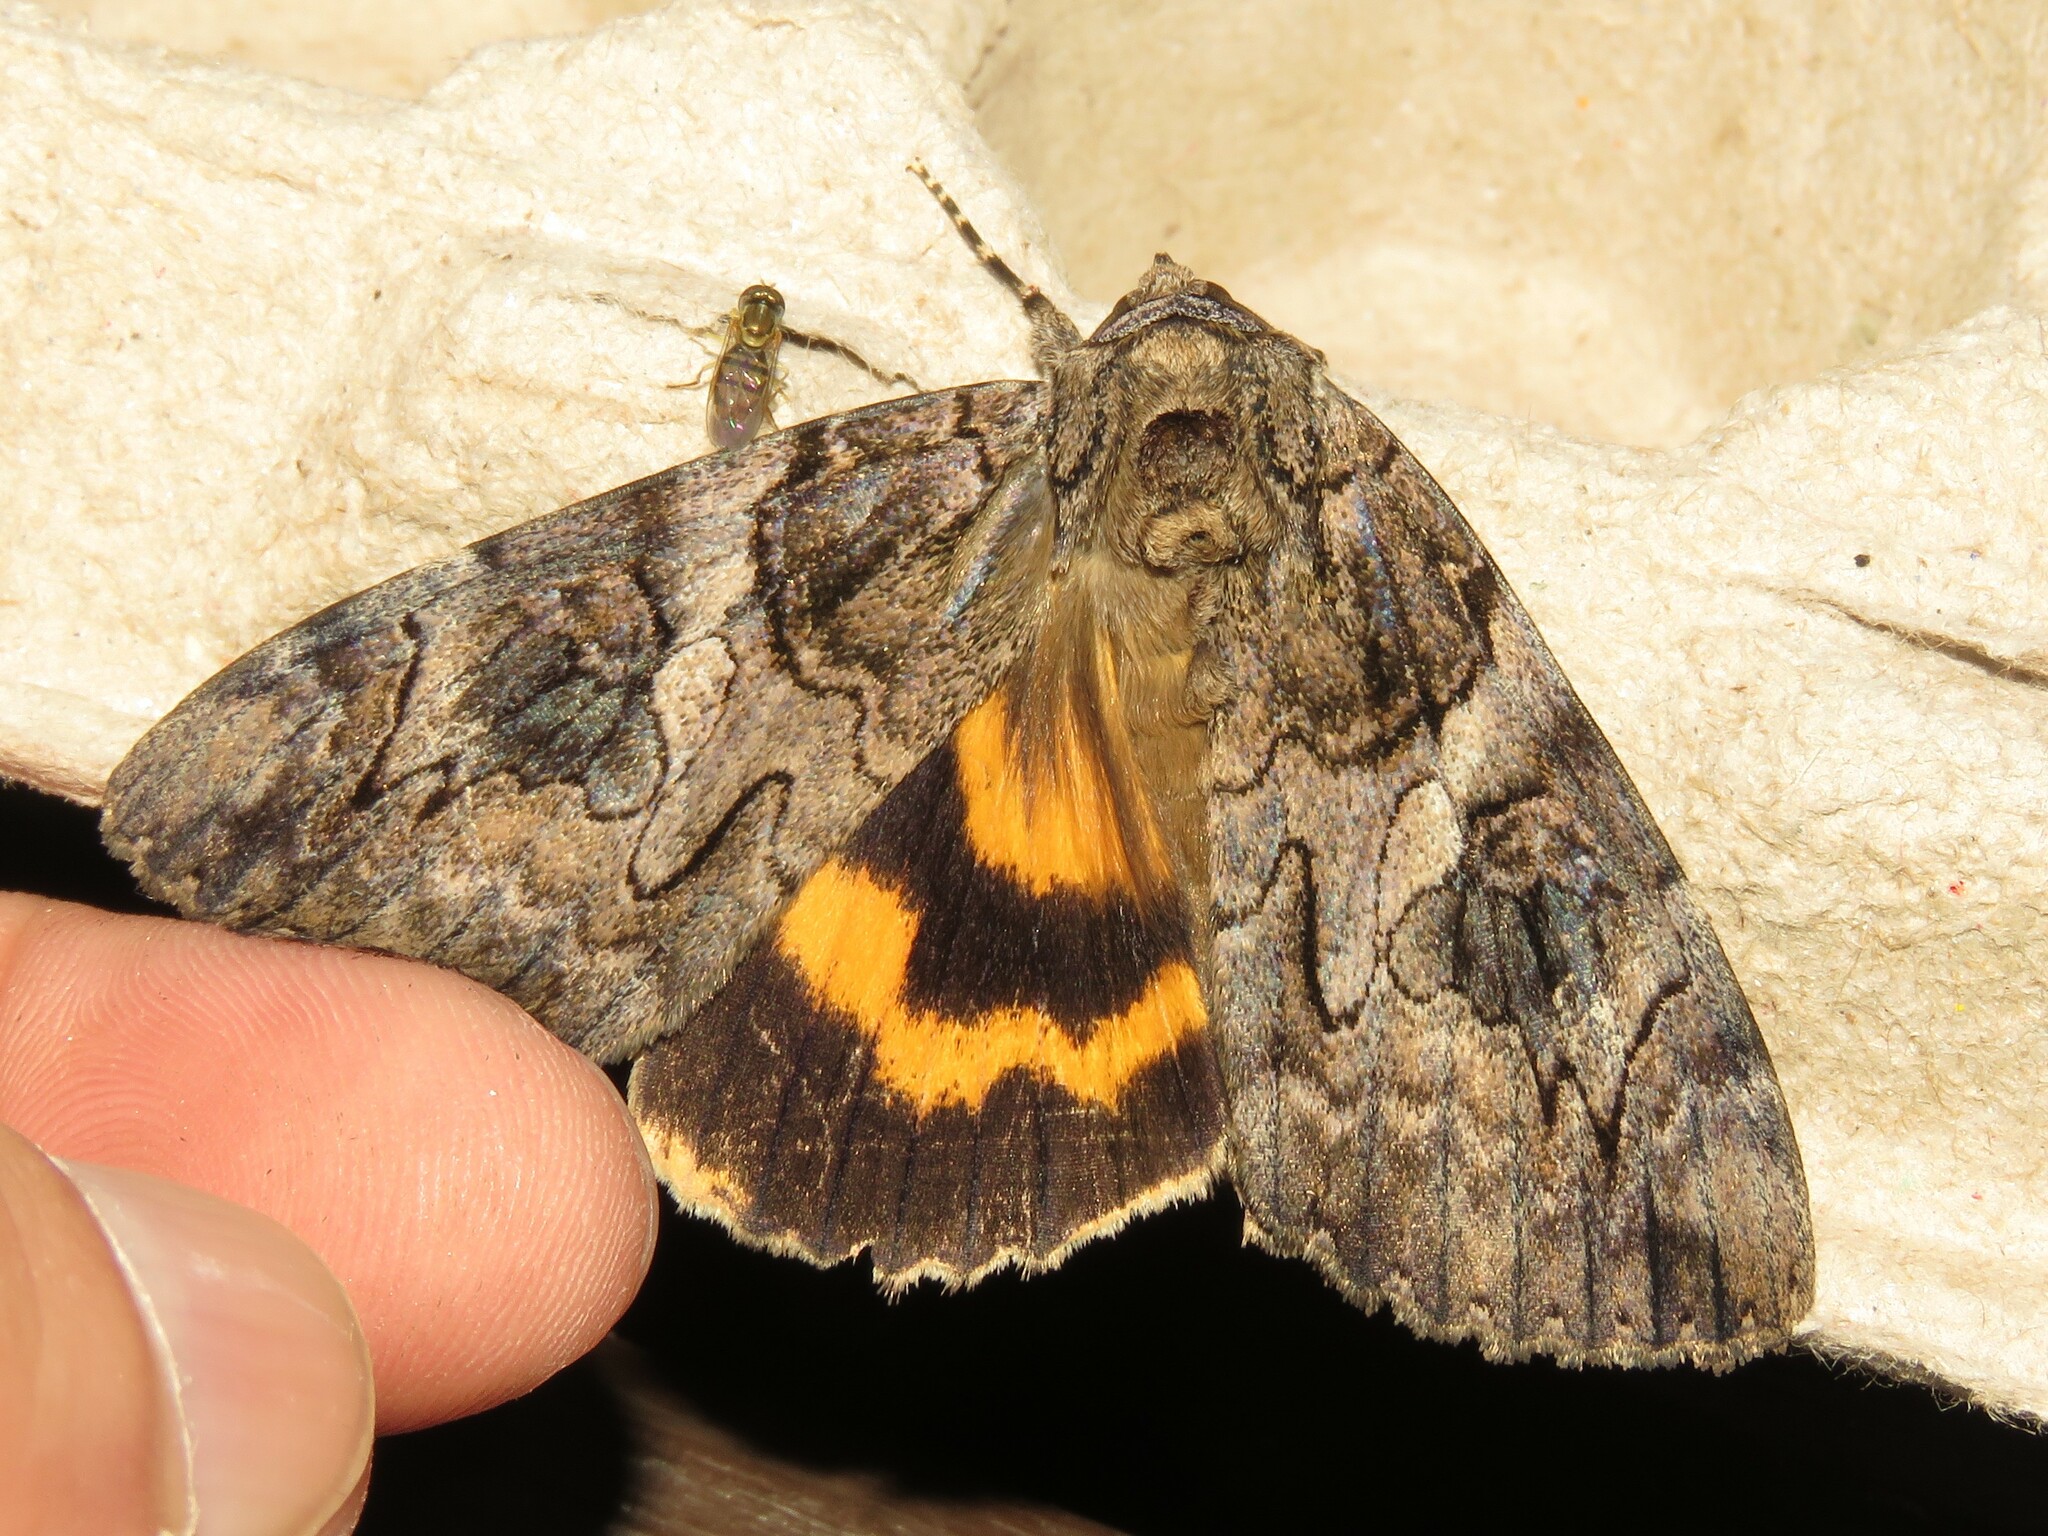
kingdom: Animalia
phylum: Arthropoda
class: Insecta
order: Lepidoptera
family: Erebidae
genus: Catocala
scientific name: Catocala piatrix
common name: The penitent underwing
